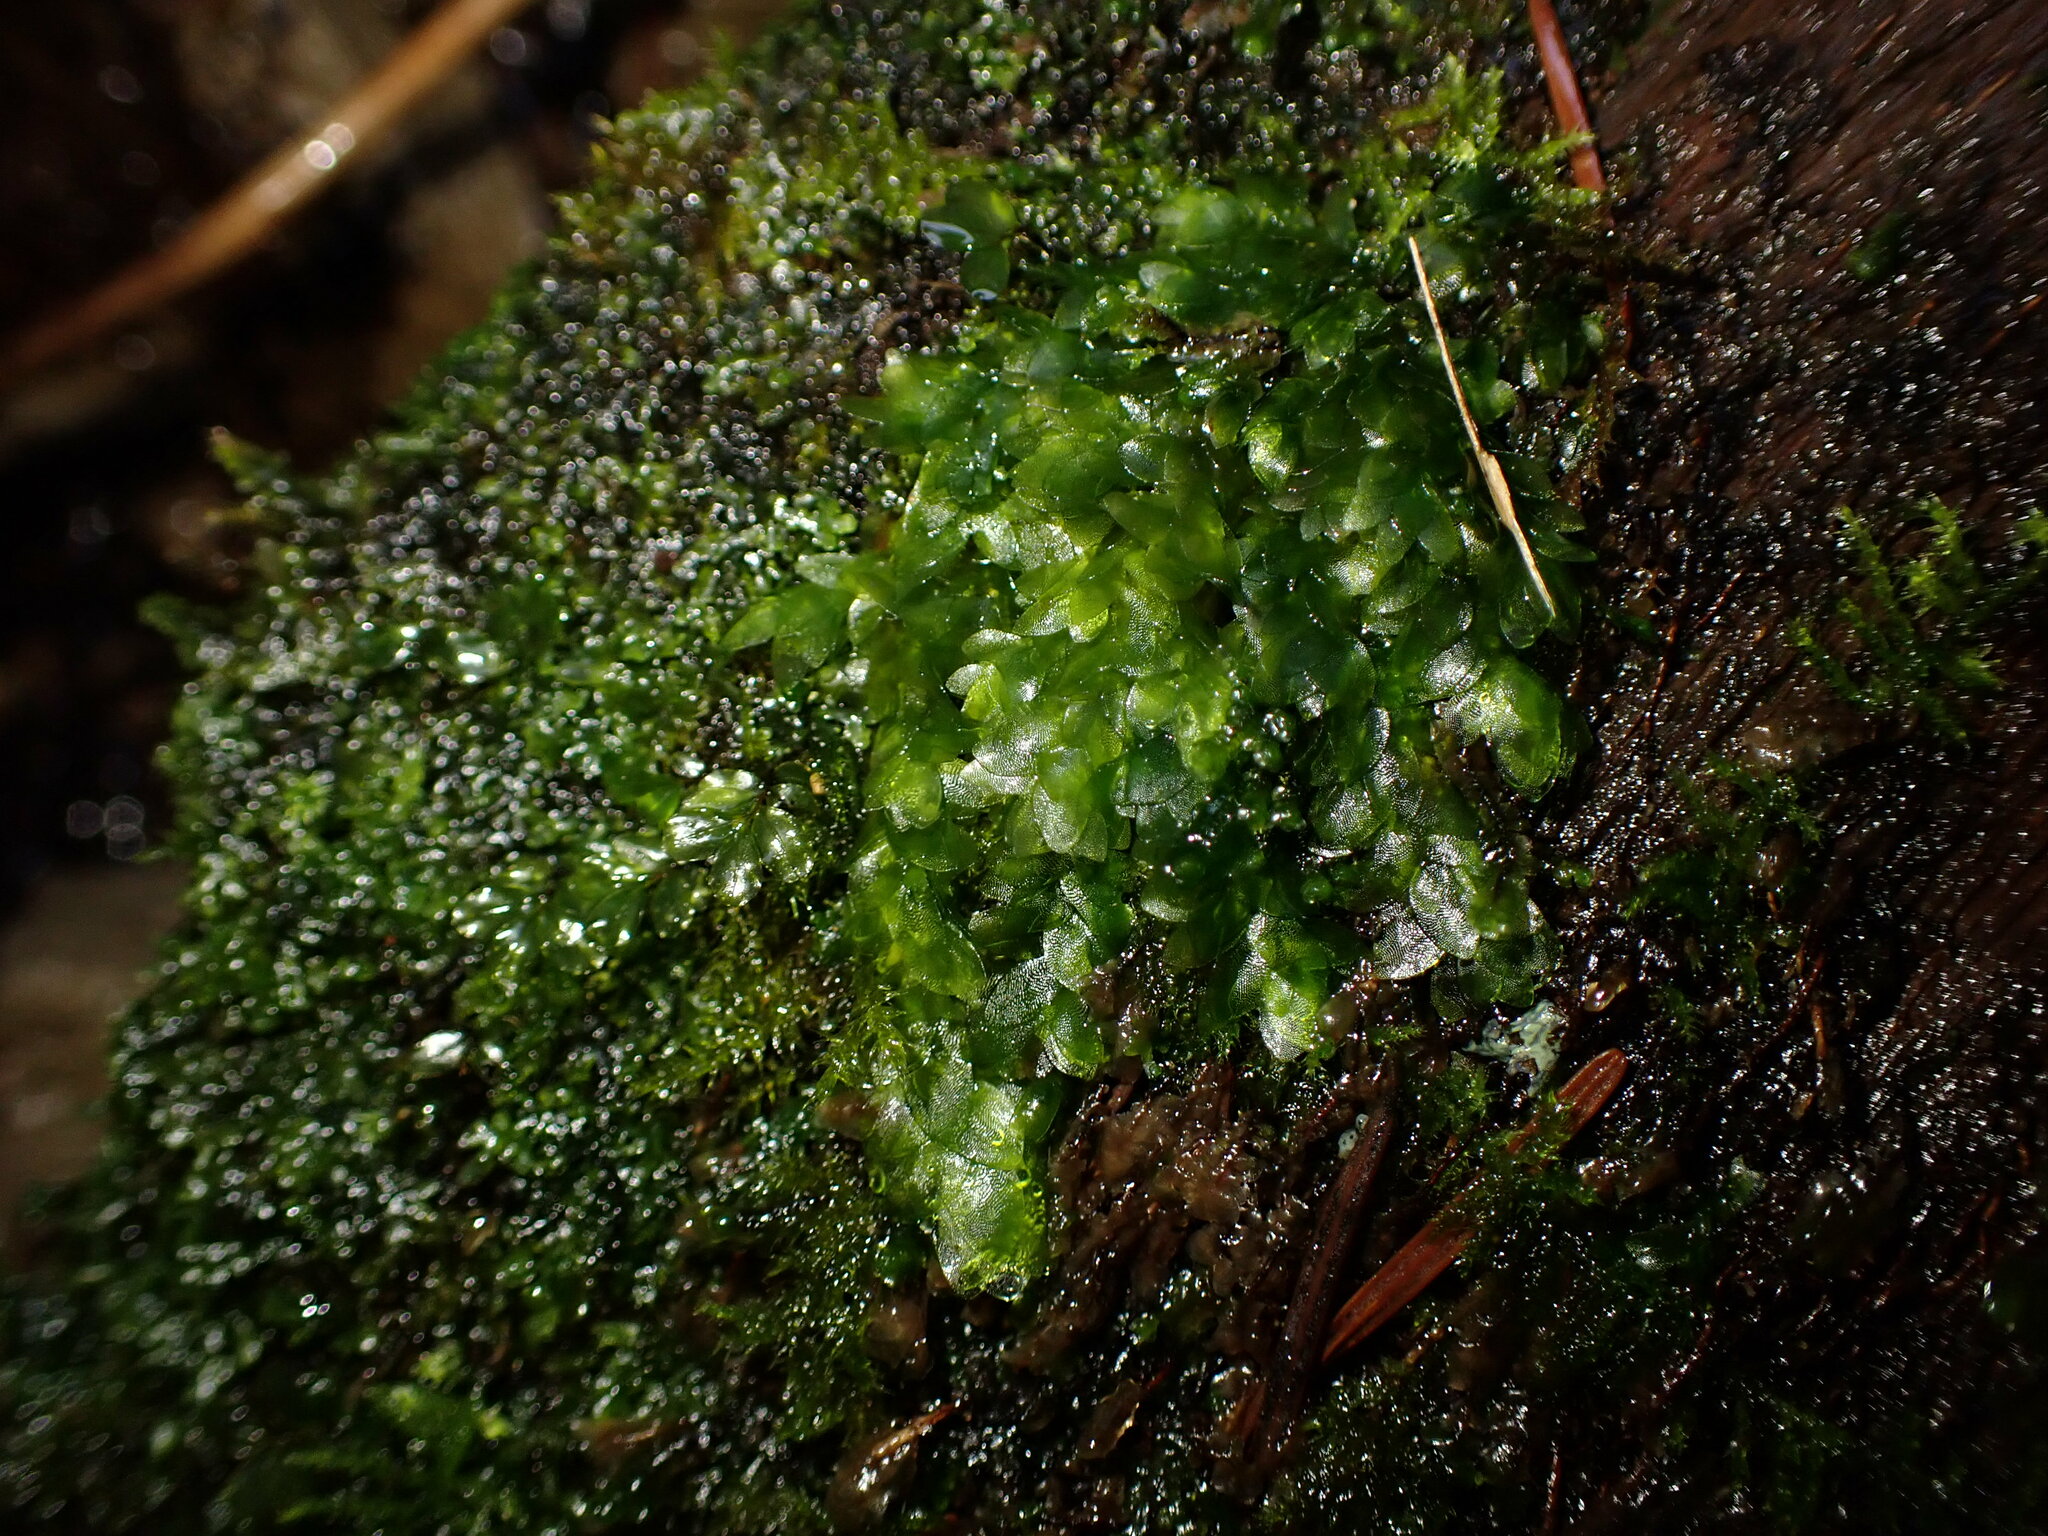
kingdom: Plantae
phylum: Bryophyta
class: Bryopsida
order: Hookeriales
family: Hookeriaceae
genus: Hookeria
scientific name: Hookeria lucens
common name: Shining hookeria
